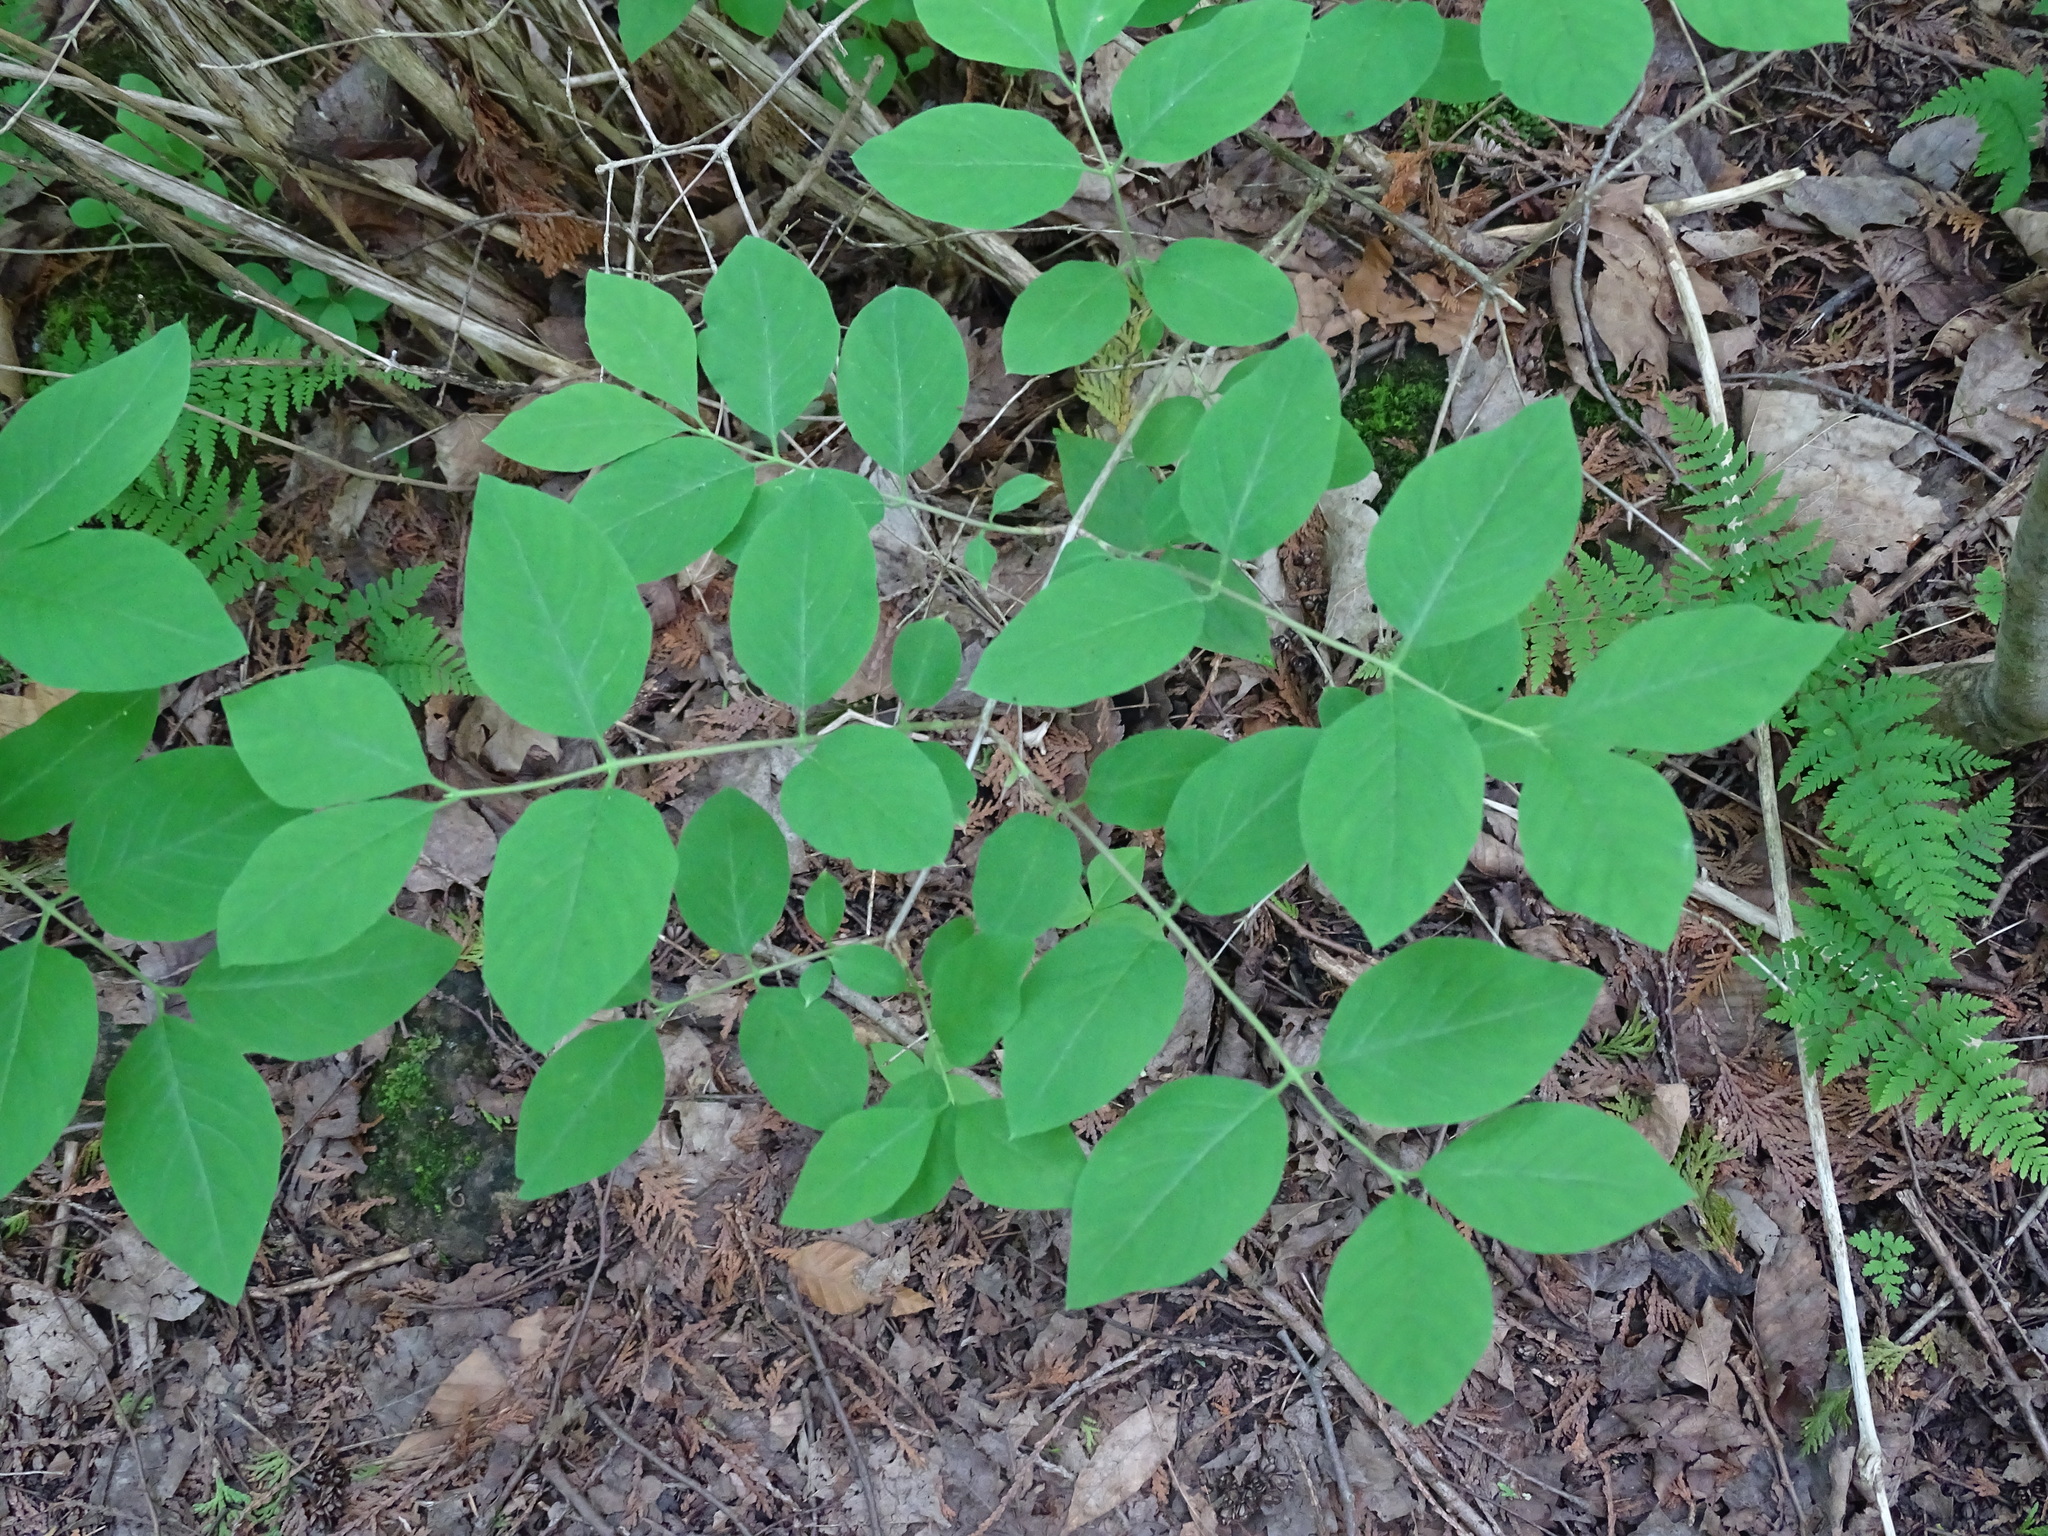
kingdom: Plantae
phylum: Tracheophyta
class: Magnoliopsida
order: Dipsacales
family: Caprifoliaceae
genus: Lonicera
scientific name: Lonicera canadensis
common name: American fly-honeysuckle
